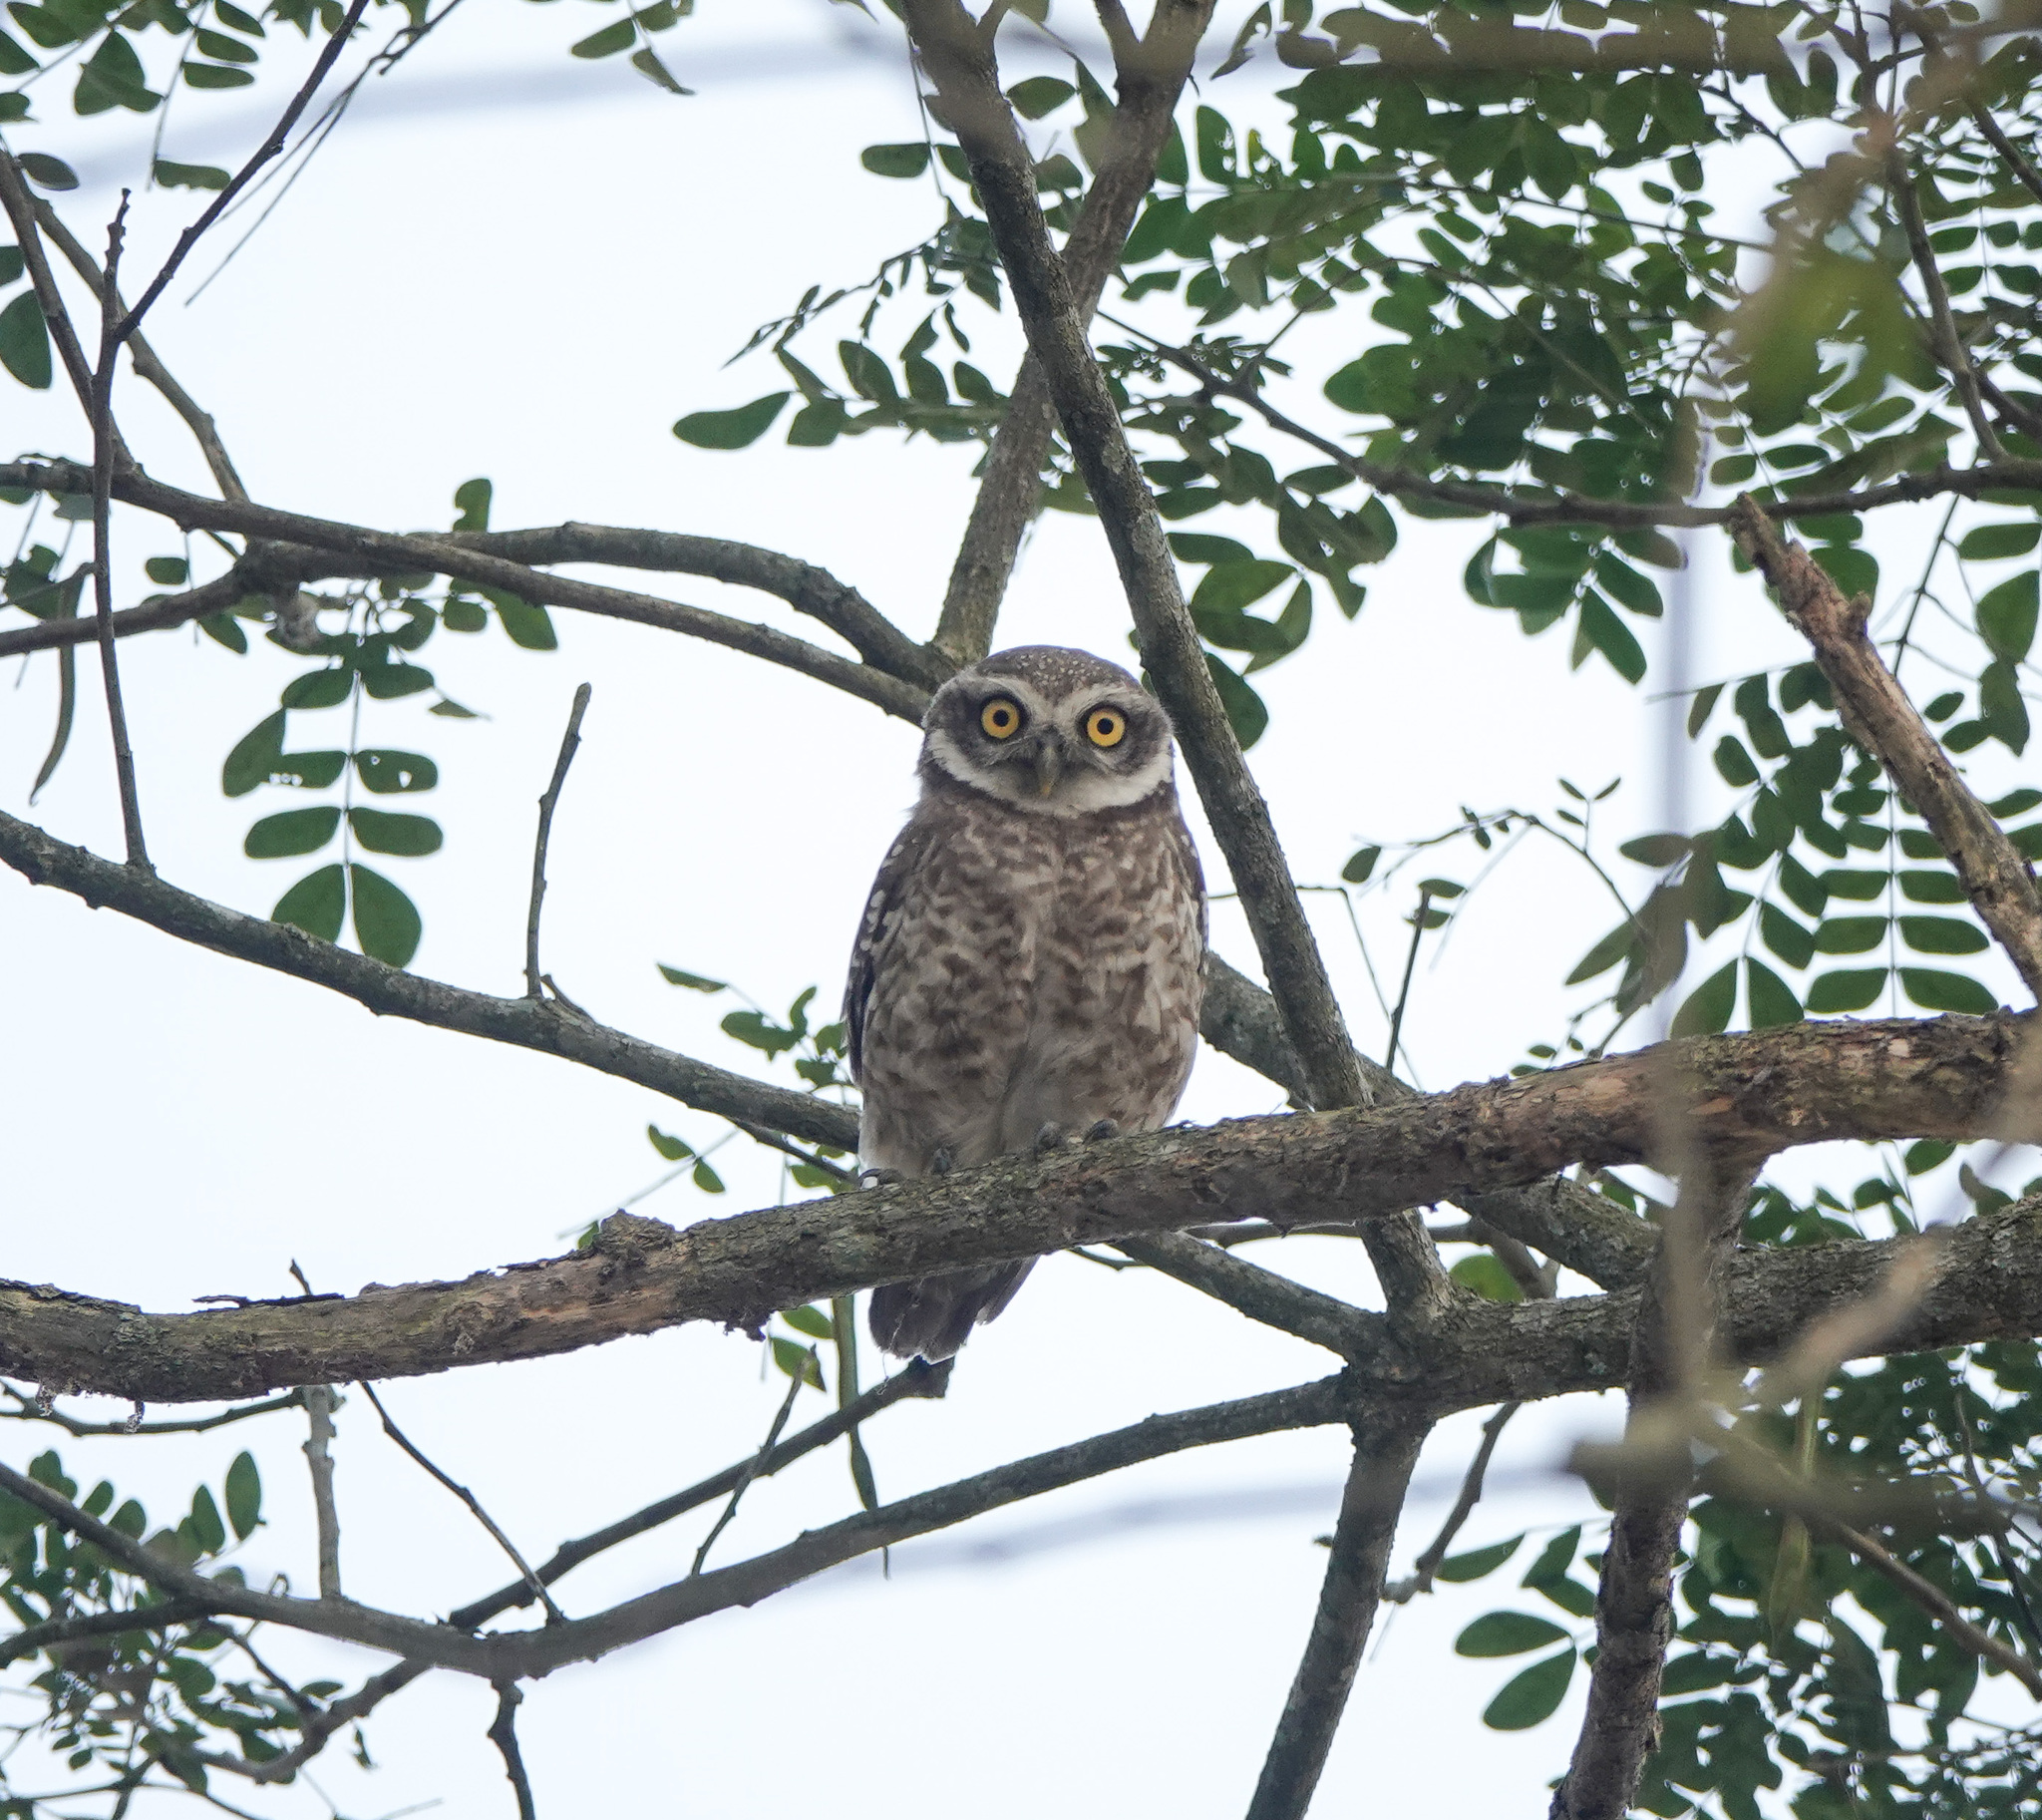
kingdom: Animalia
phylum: Chordata
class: Aves
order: Strigiformes
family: Strigidae
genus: Athene
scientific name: Athene brama
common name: Spotted owlet
